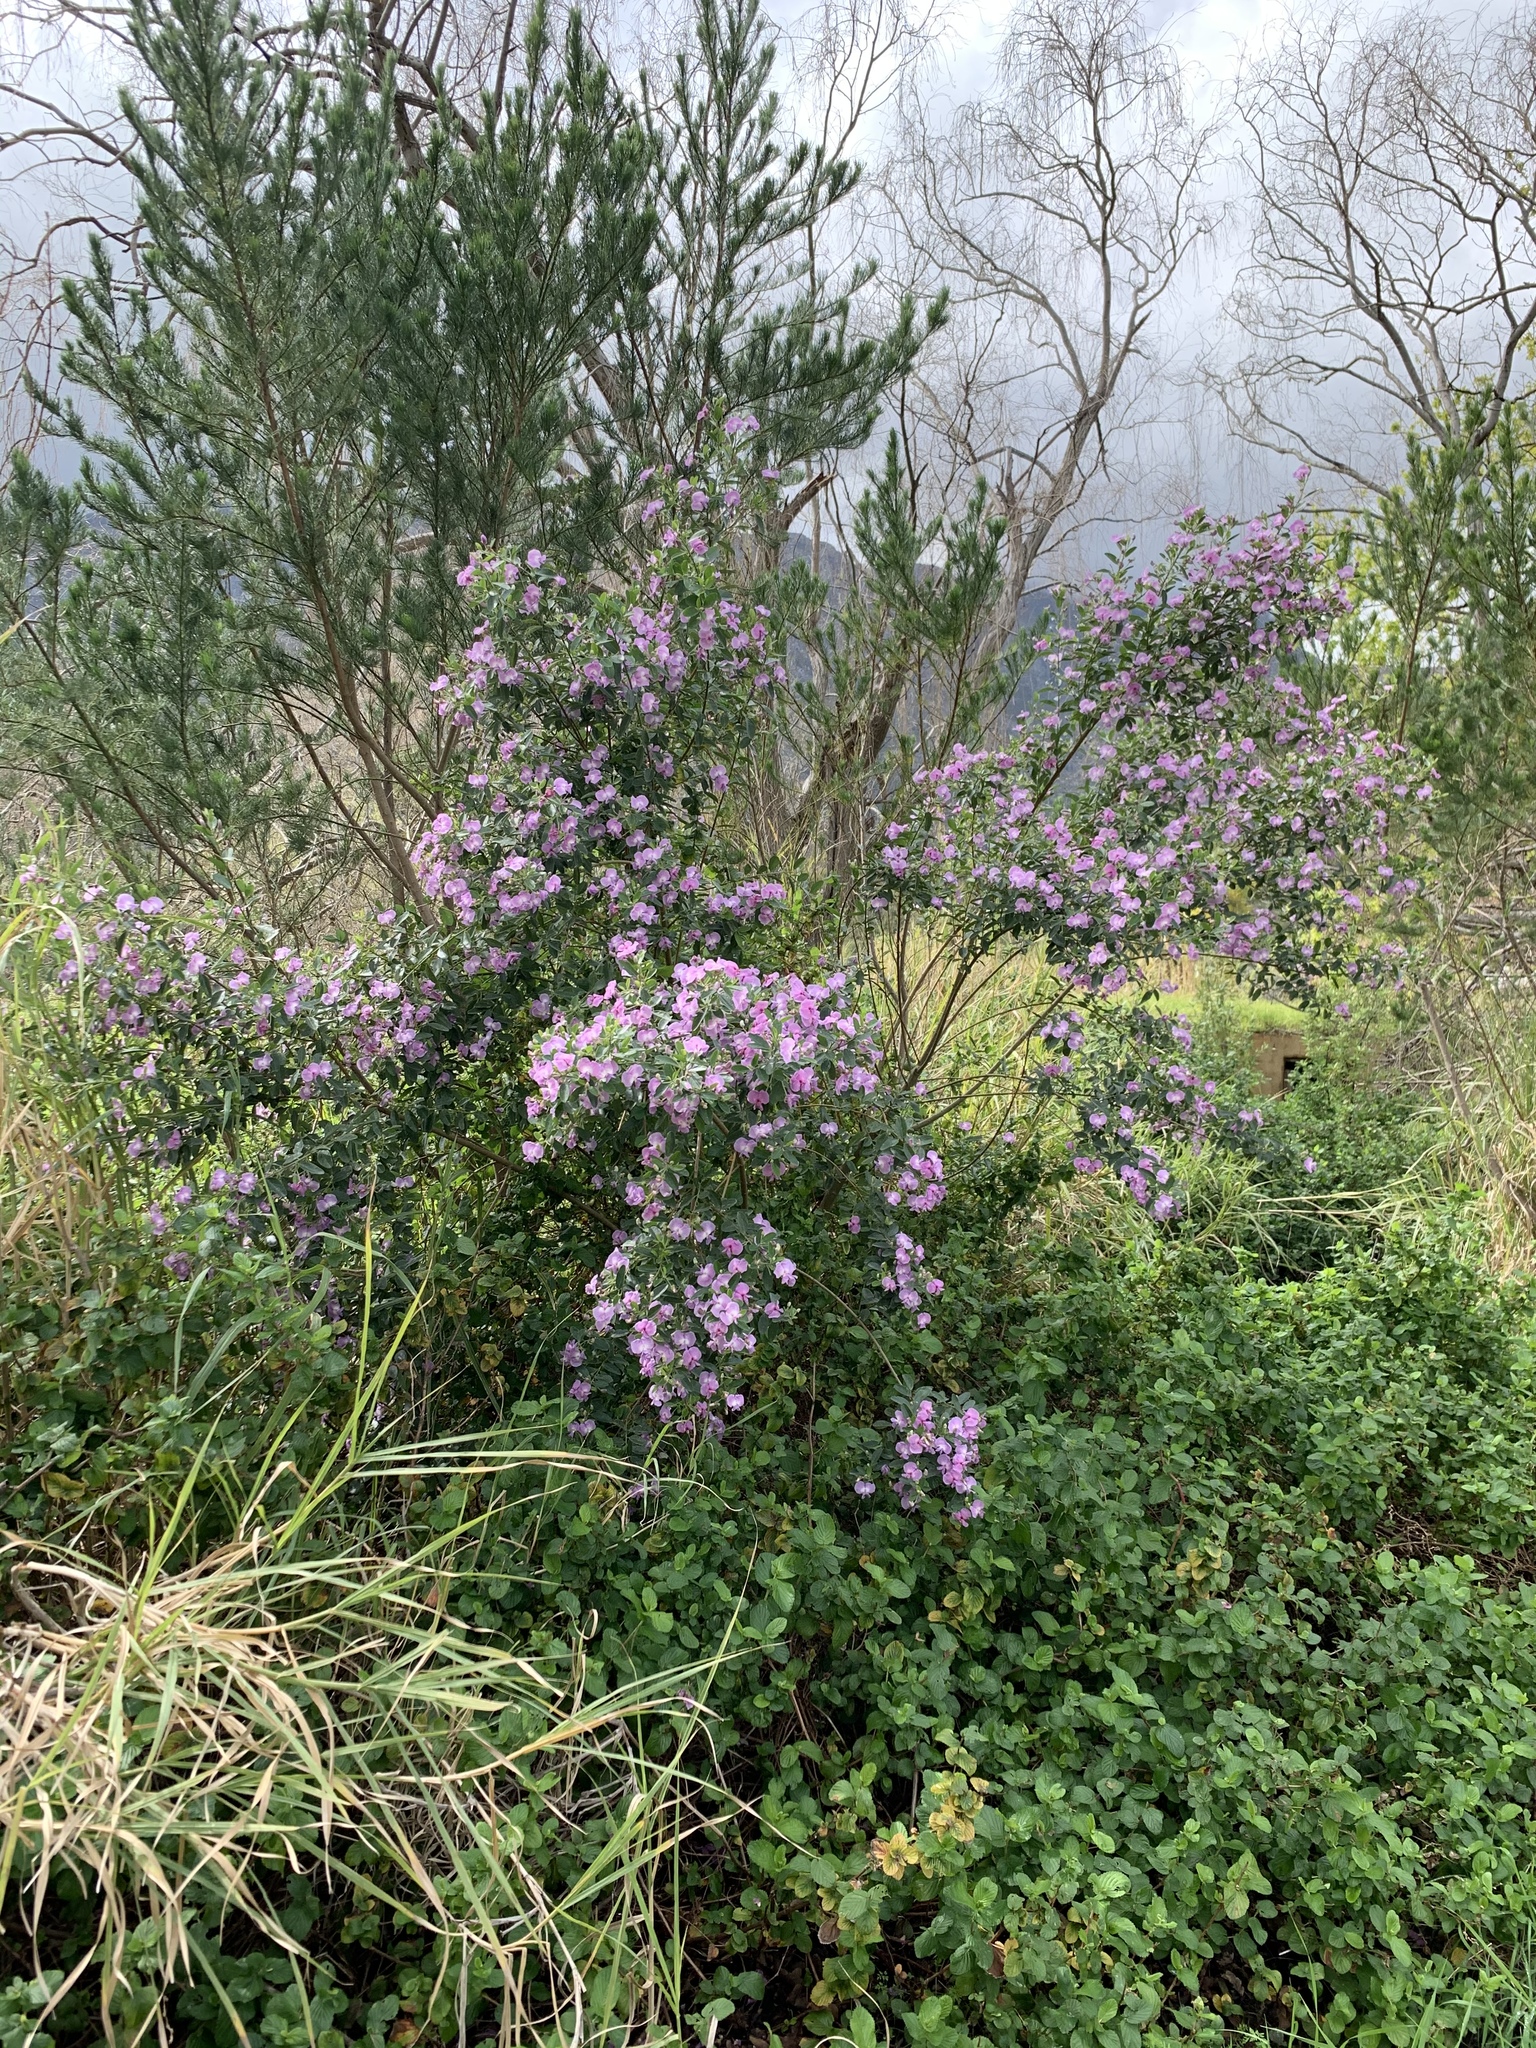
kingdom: Plantae
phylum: Tracheophyta
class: Magnoliopsida
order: Fabales
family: Fabaceae
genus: Podalyria
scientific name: Podalyria calyptrata
